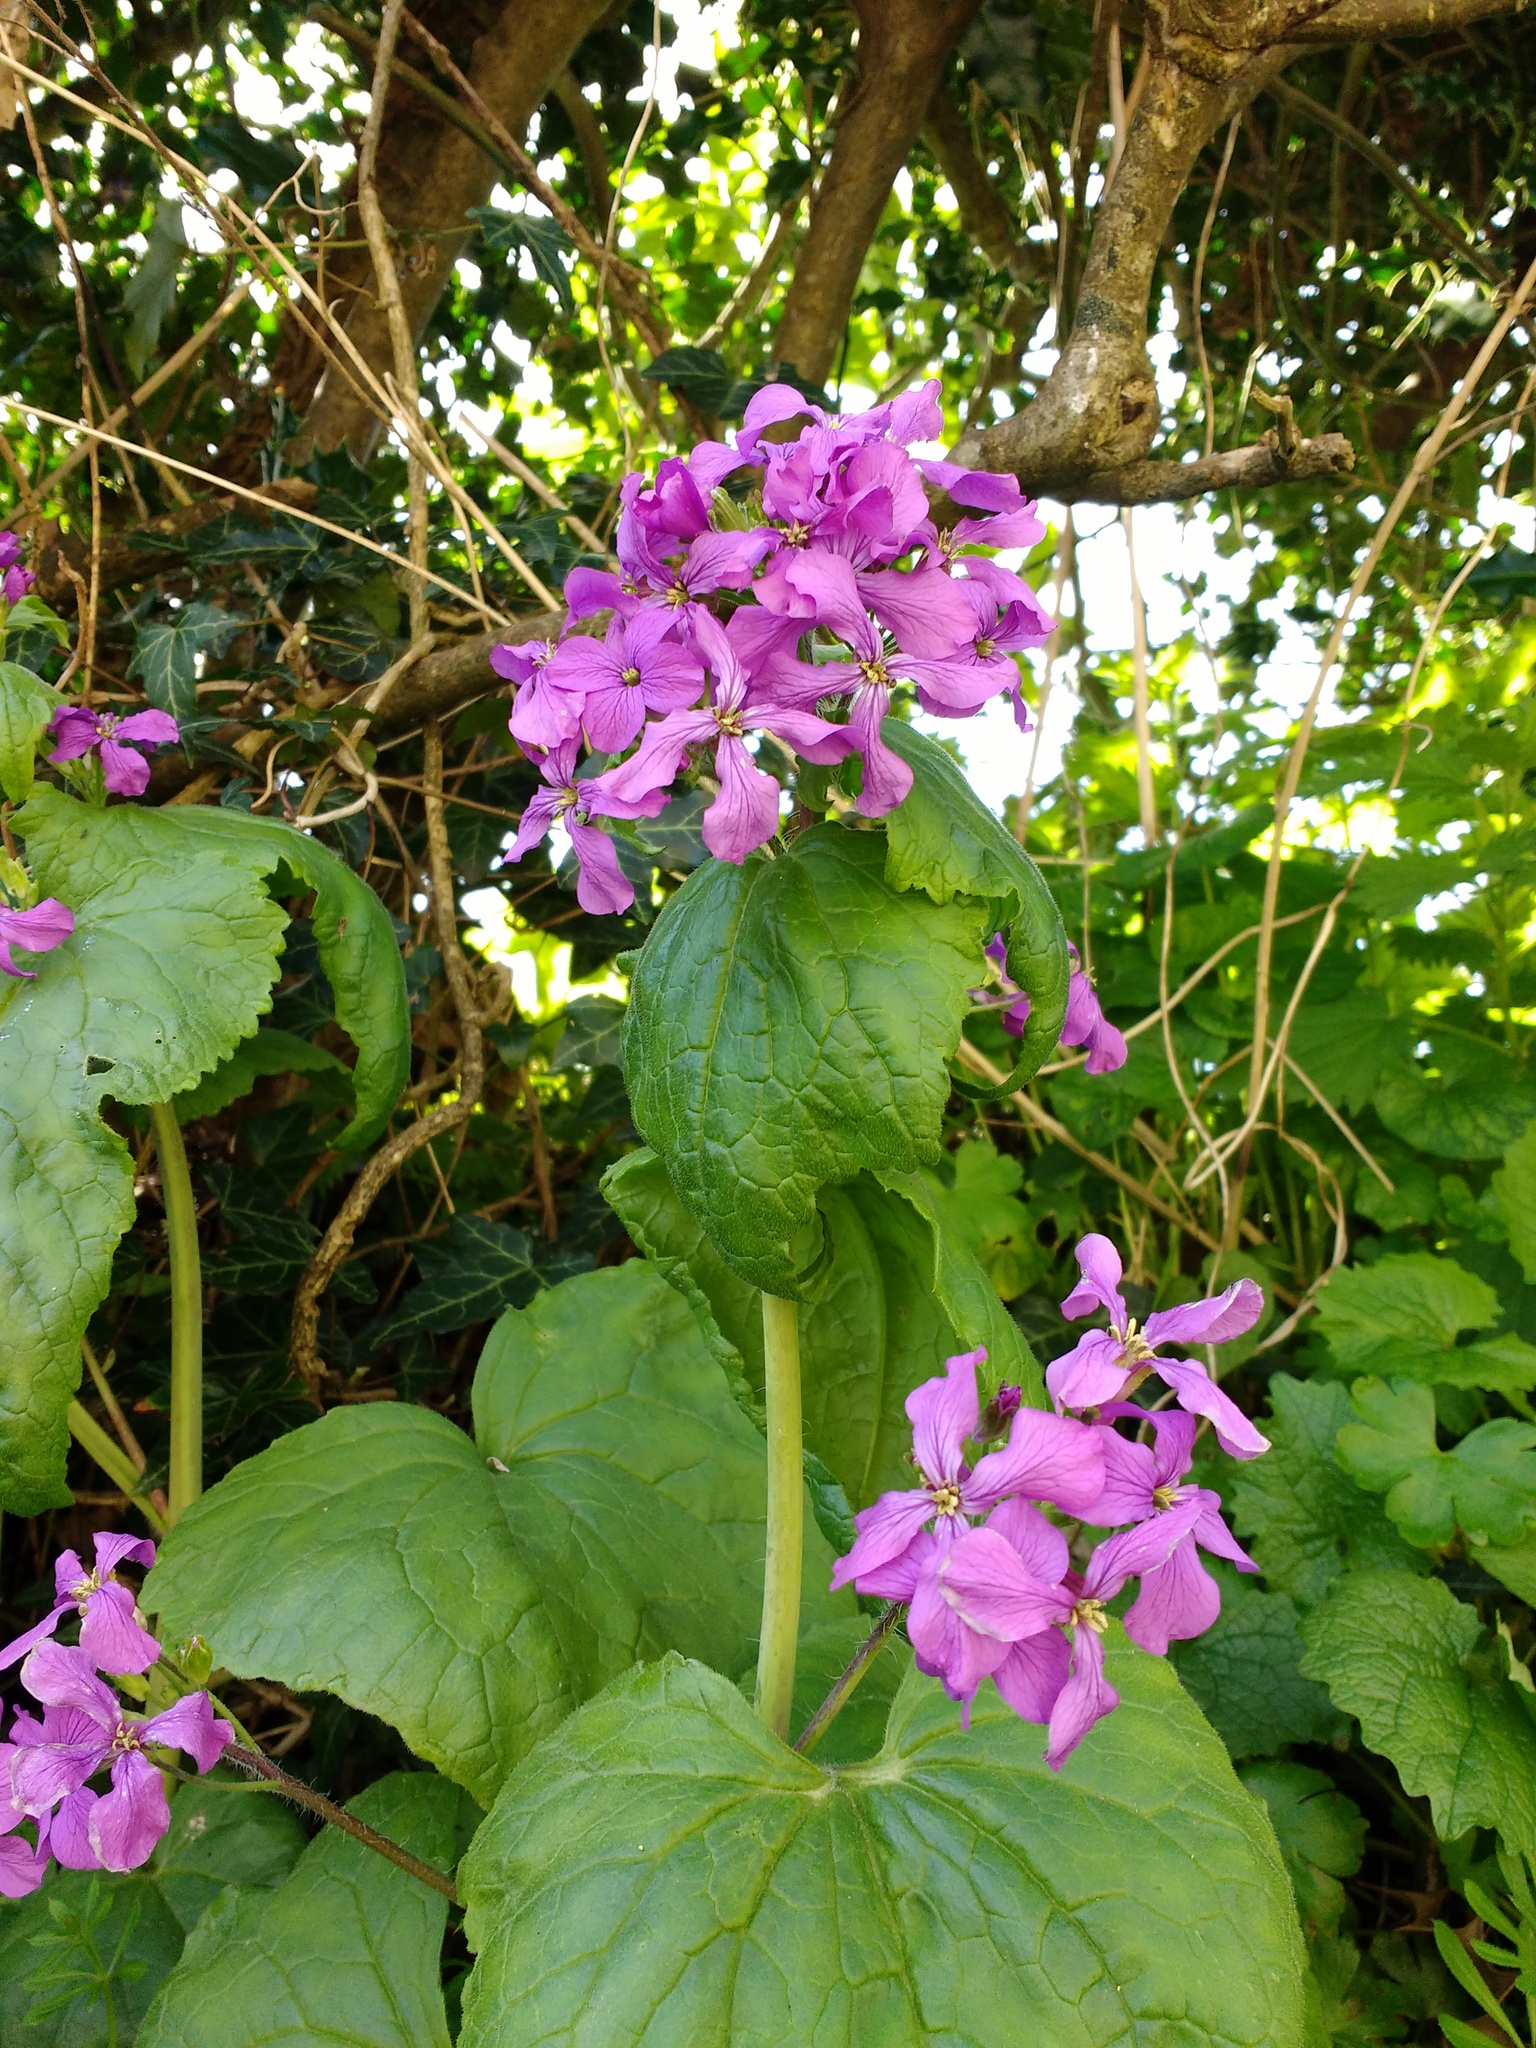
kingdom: Plantae
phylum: Tracheophyta
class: Magnoliopsida
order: Brassicales
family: Brassicaceae
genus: Lunaria
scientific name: Lunaria annua
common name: Honesty
